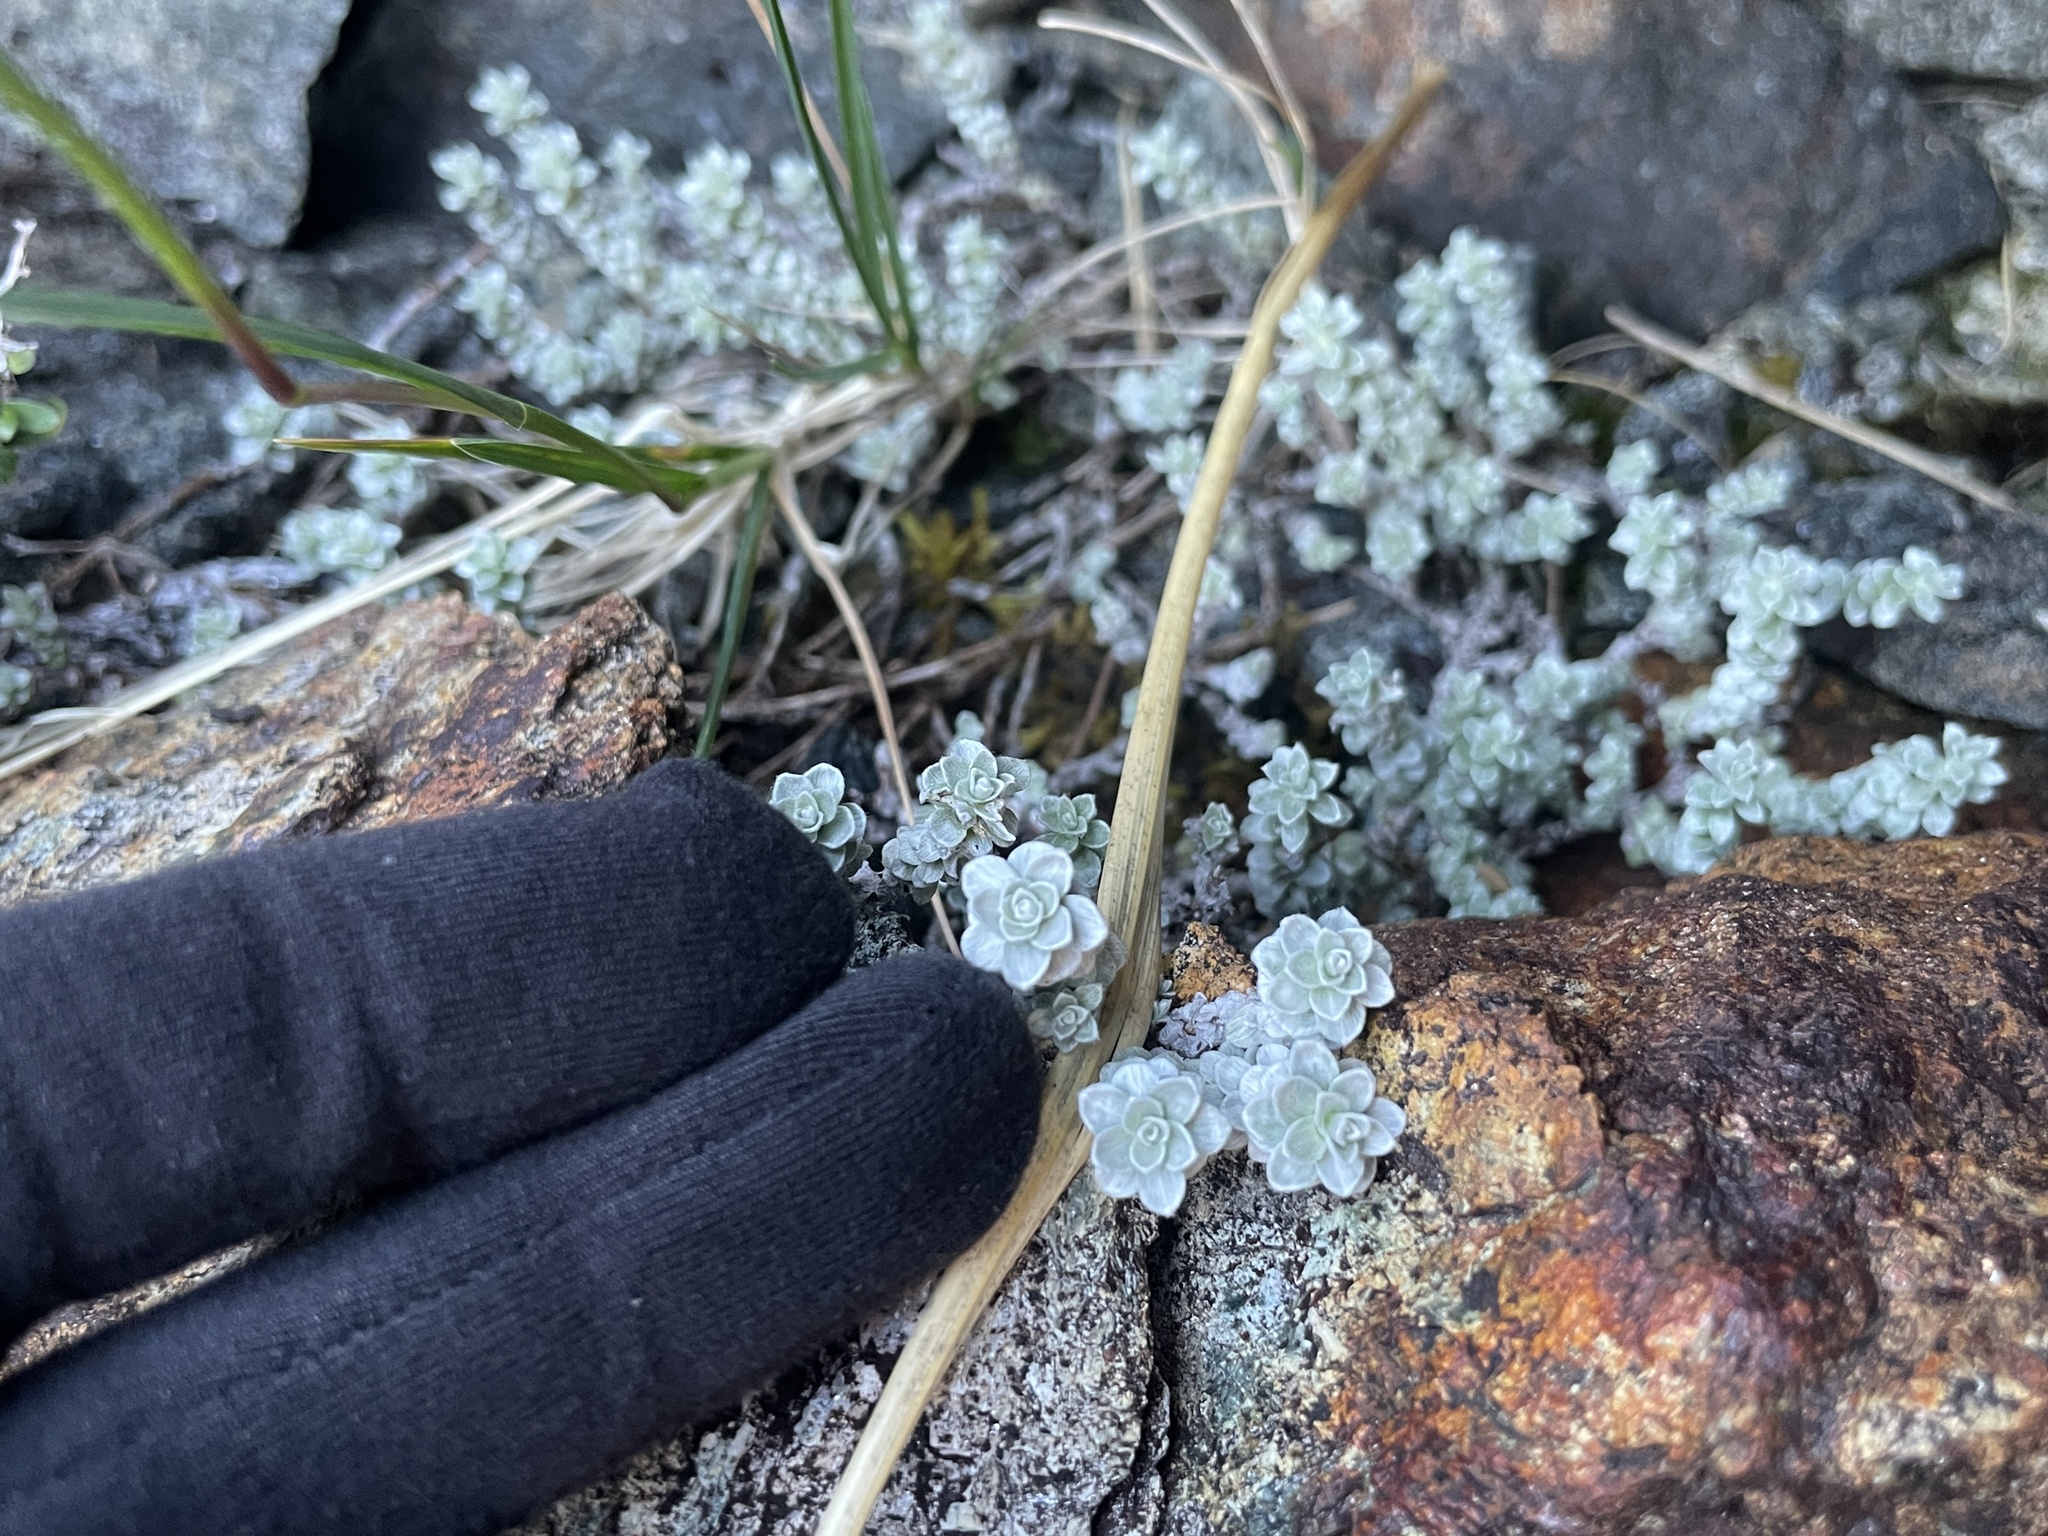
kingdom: Plantae
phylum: Tracheophyta
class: Magnoliopsida
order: Asterales
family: Asteraceae
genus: Leucogenes
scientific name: Leucogenes grandiceps
